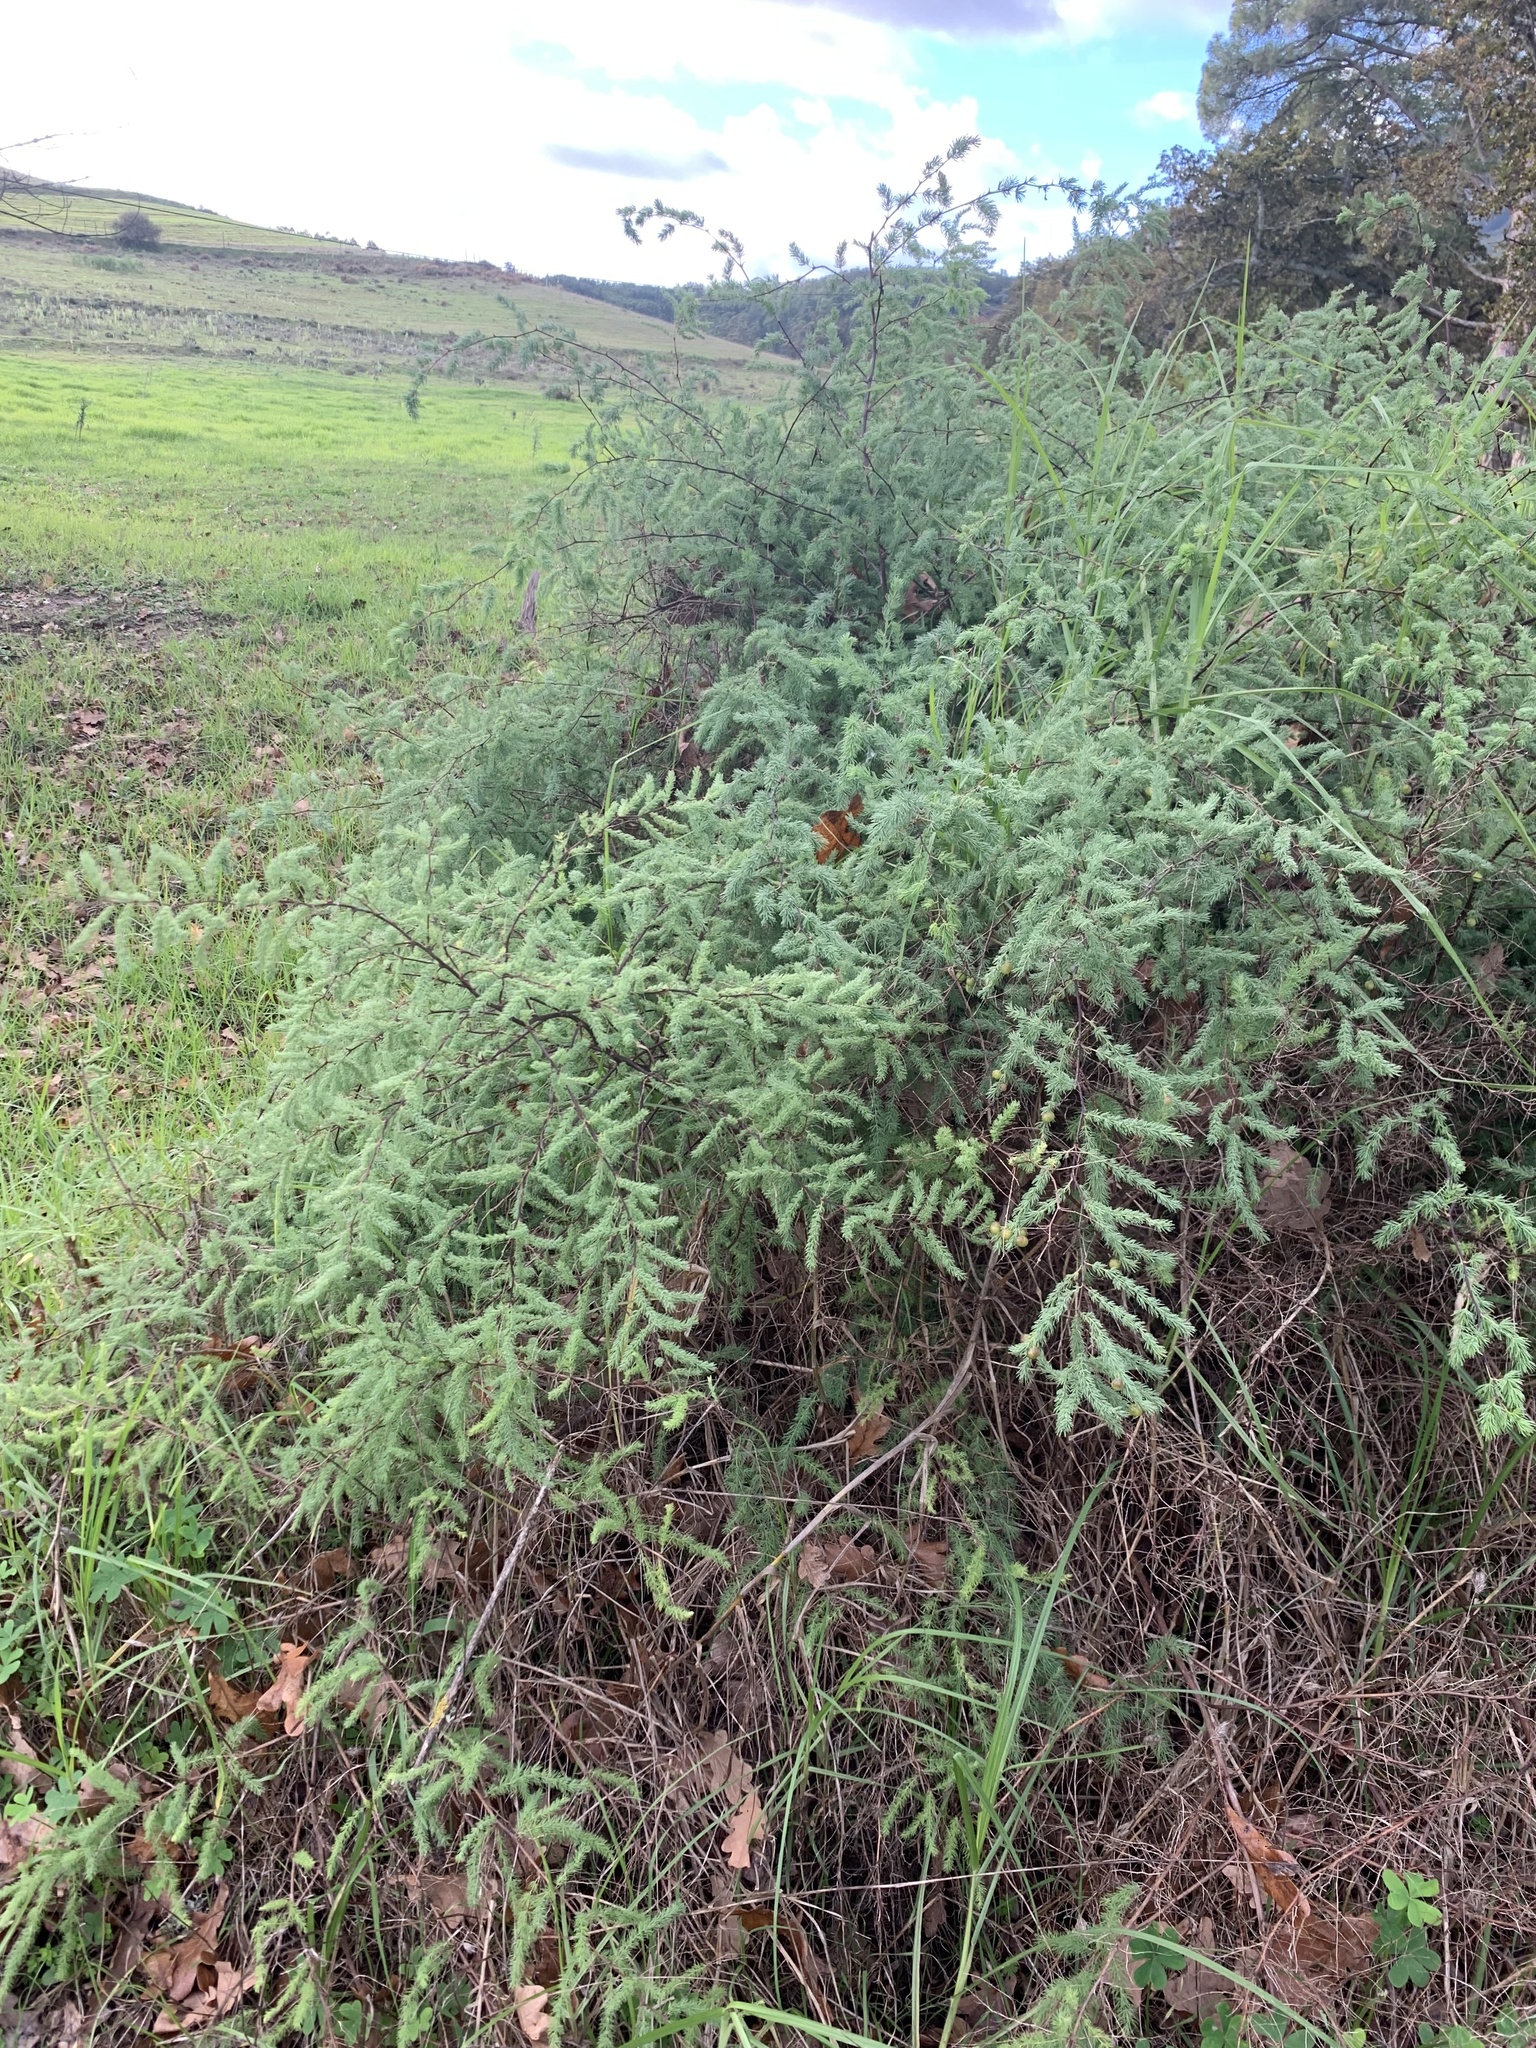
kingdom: Plantae
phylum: Tracheophyta
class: Liliopsida
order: Asparagales
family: Asparagaceae
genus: Asparagus
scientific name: Asparagus rubicundus
